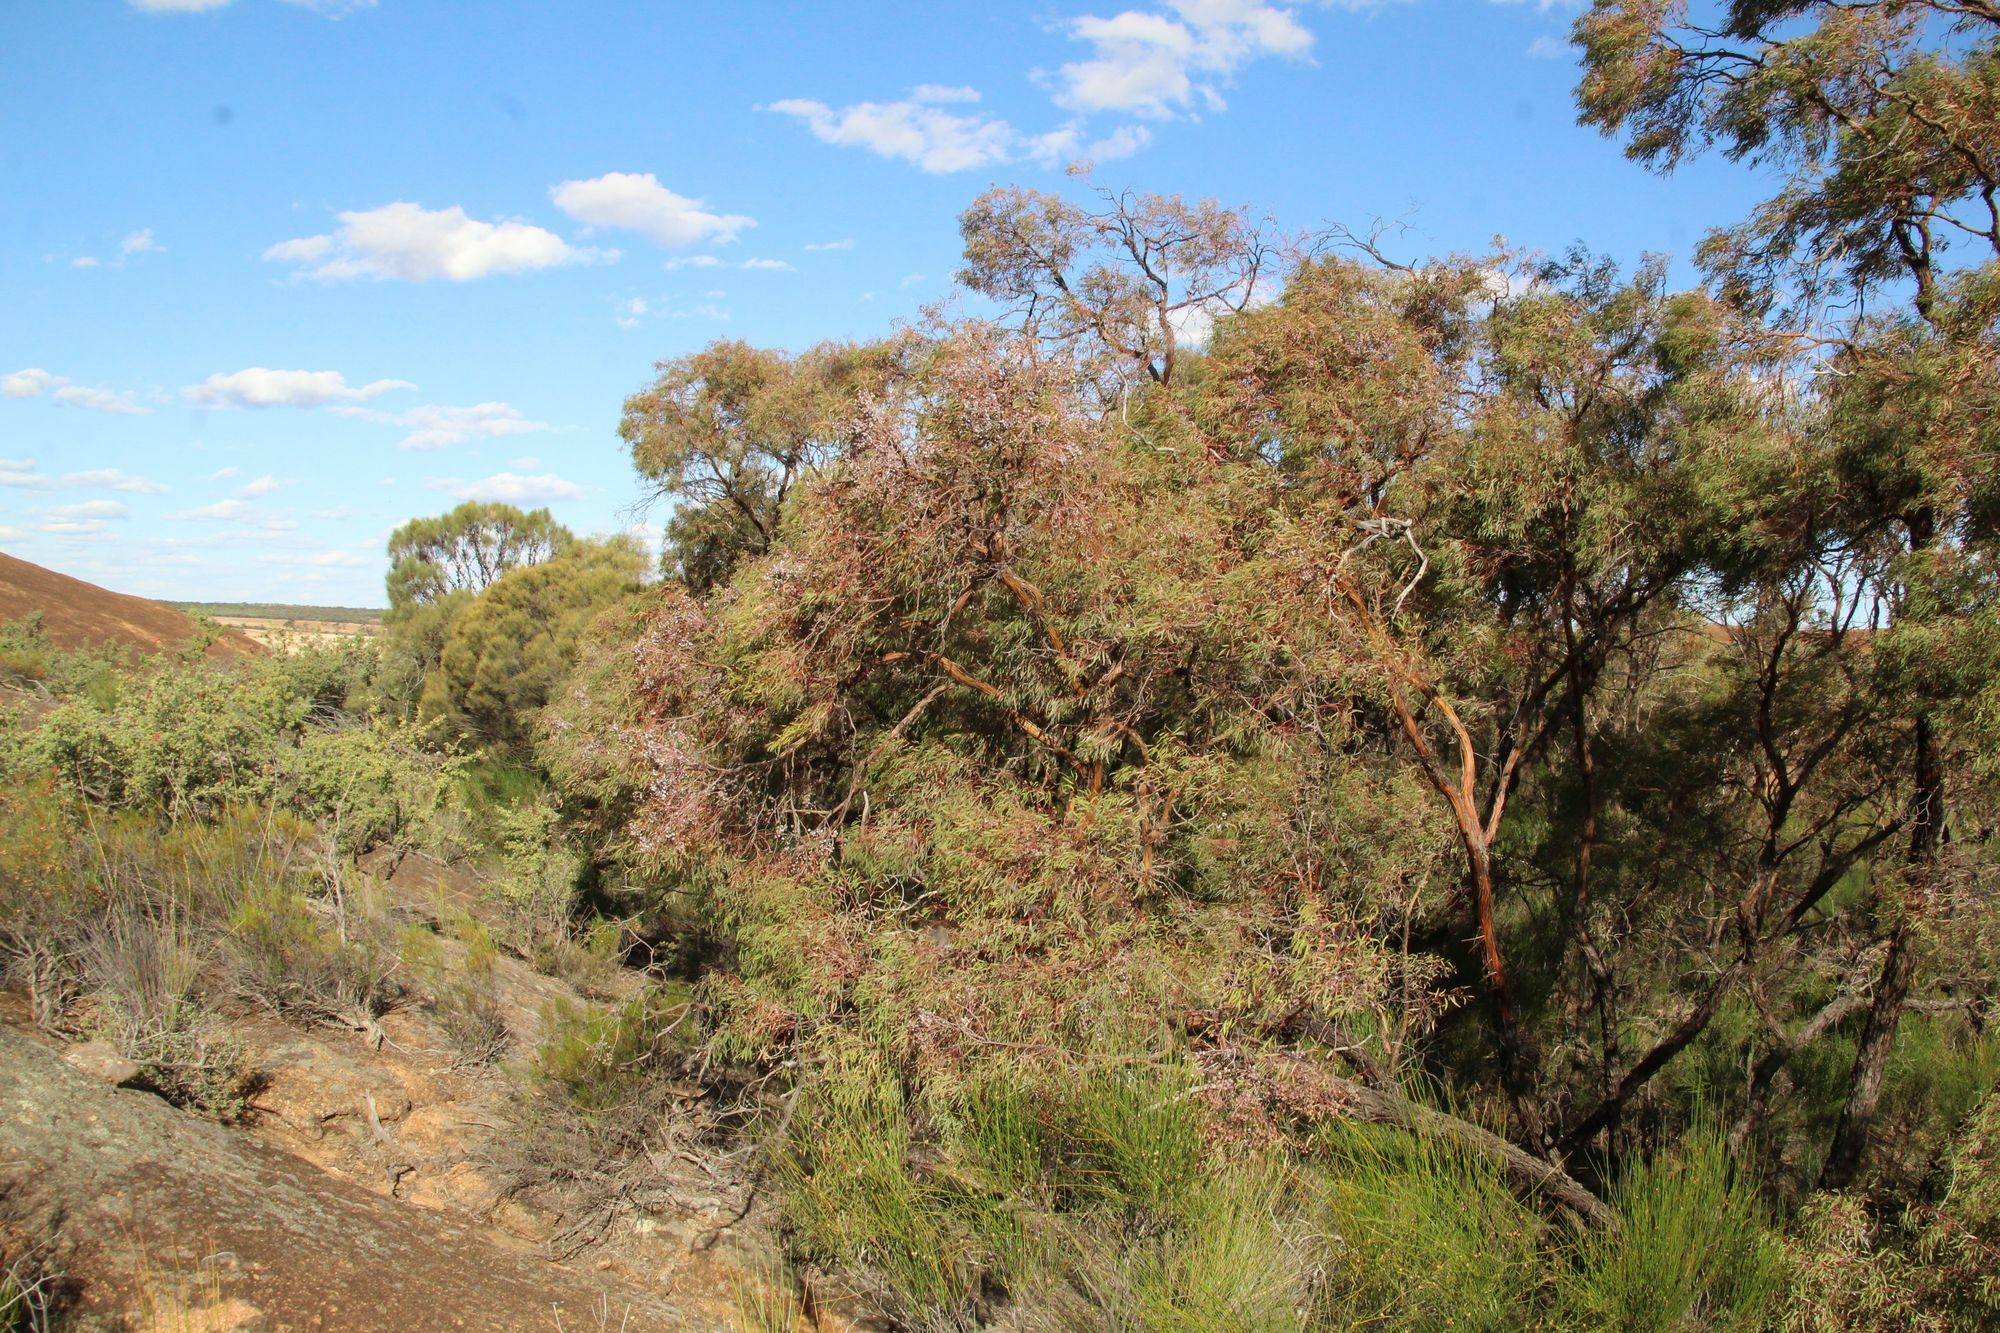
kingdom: Plantae
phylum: Tracheophyta
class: Magnoliopsida
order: Myrtales
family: Myrtaceae
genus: Eucalyptus
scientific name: Eucalyptus crucis
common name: Southern cross silver mallee
